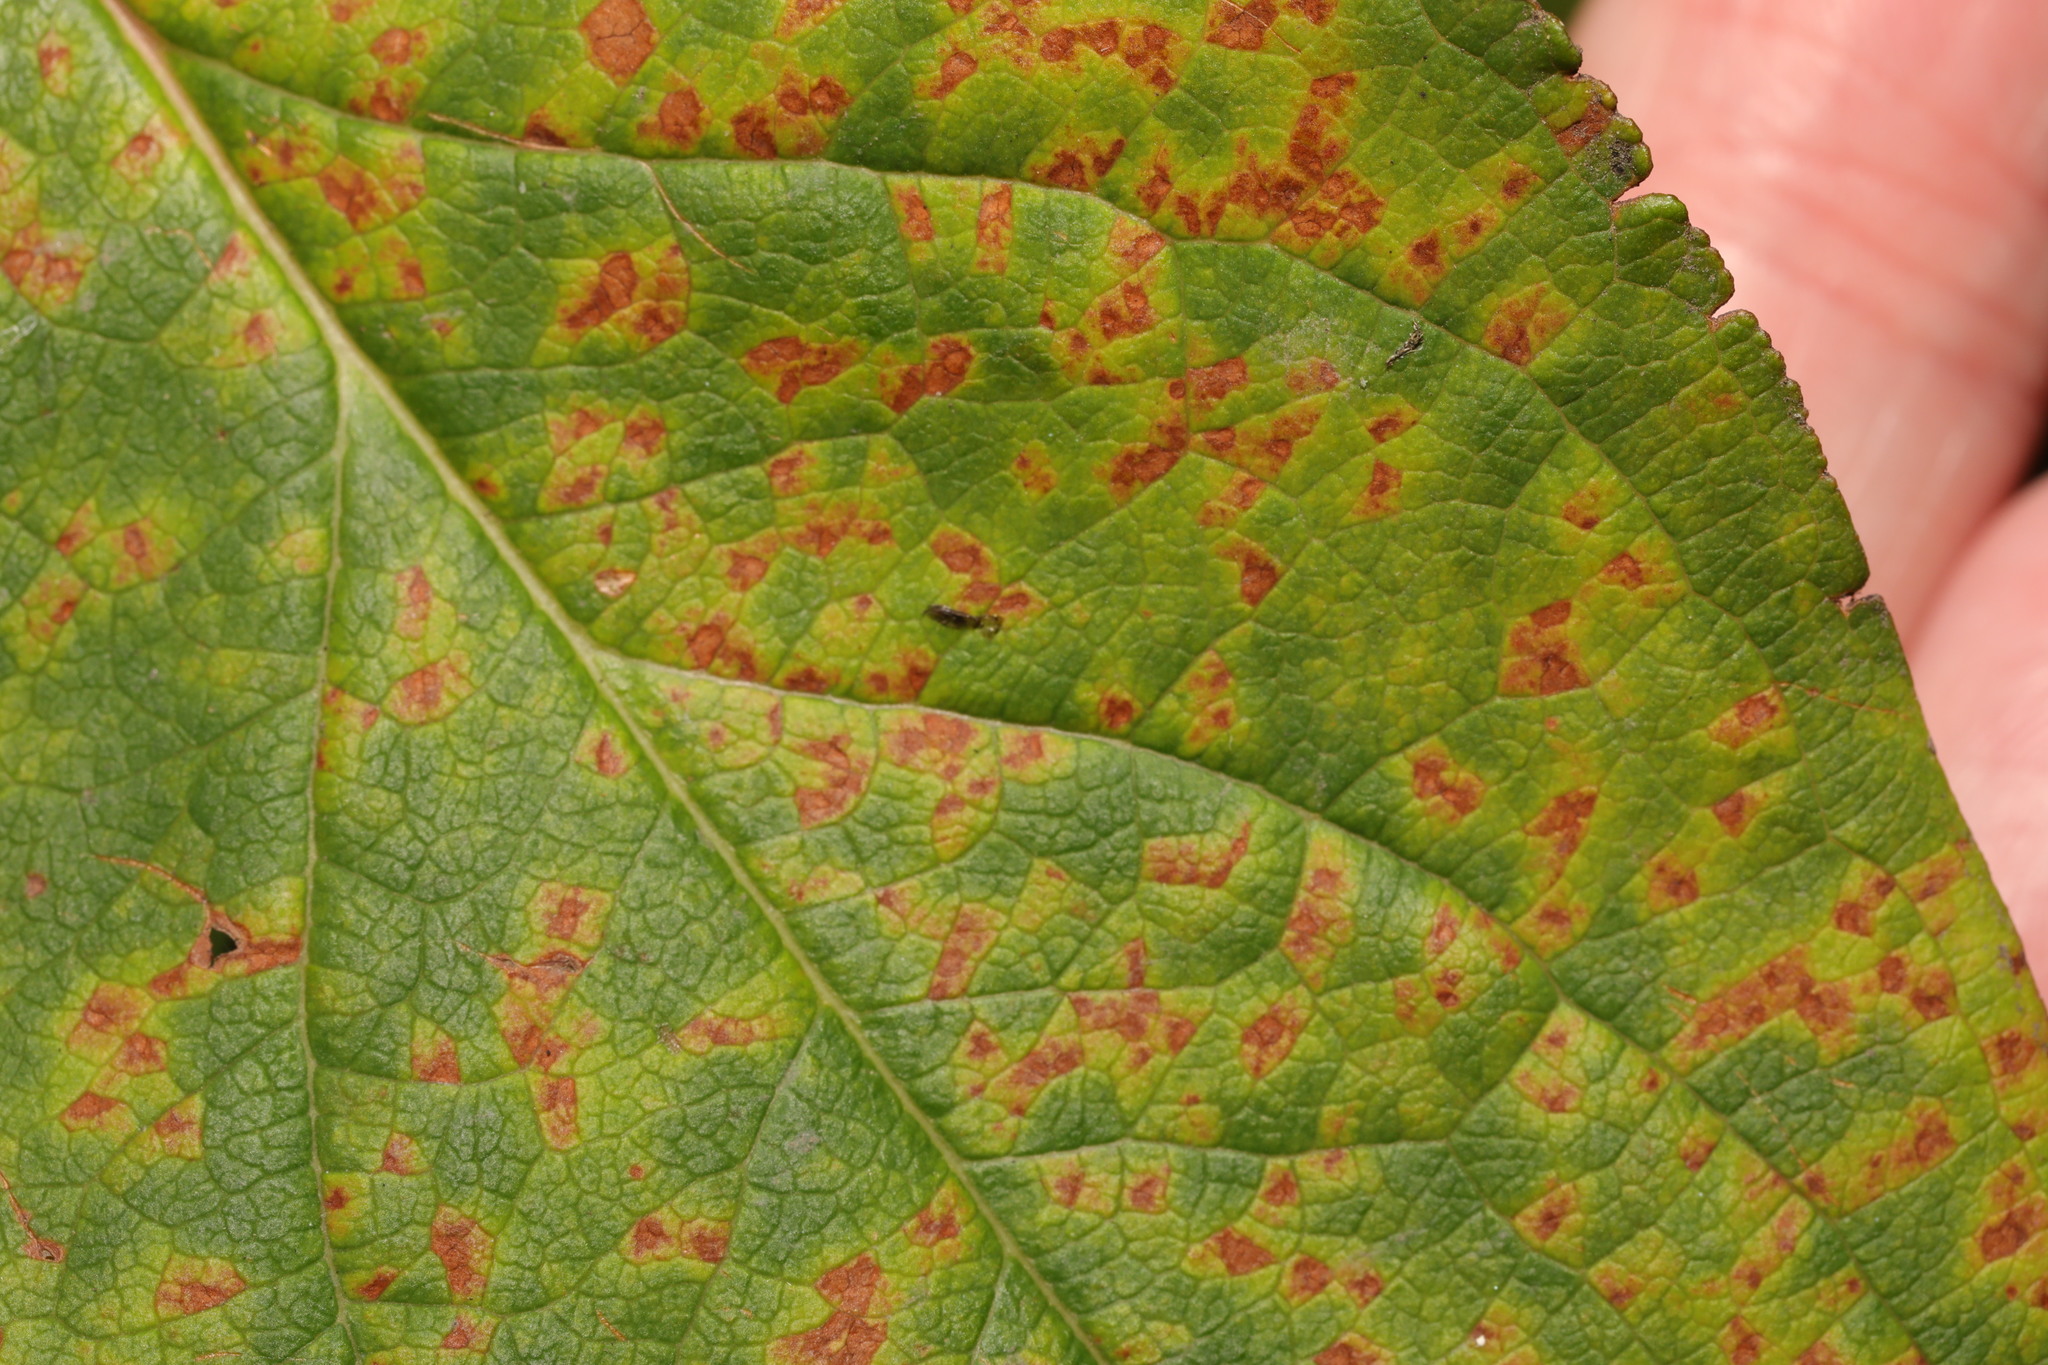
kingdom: Fungi
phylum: Basidiomycota
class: Pucciniomycetes
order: Pucciniales
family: Melampsoraceae
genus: Melampsora
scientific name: Melampsora
